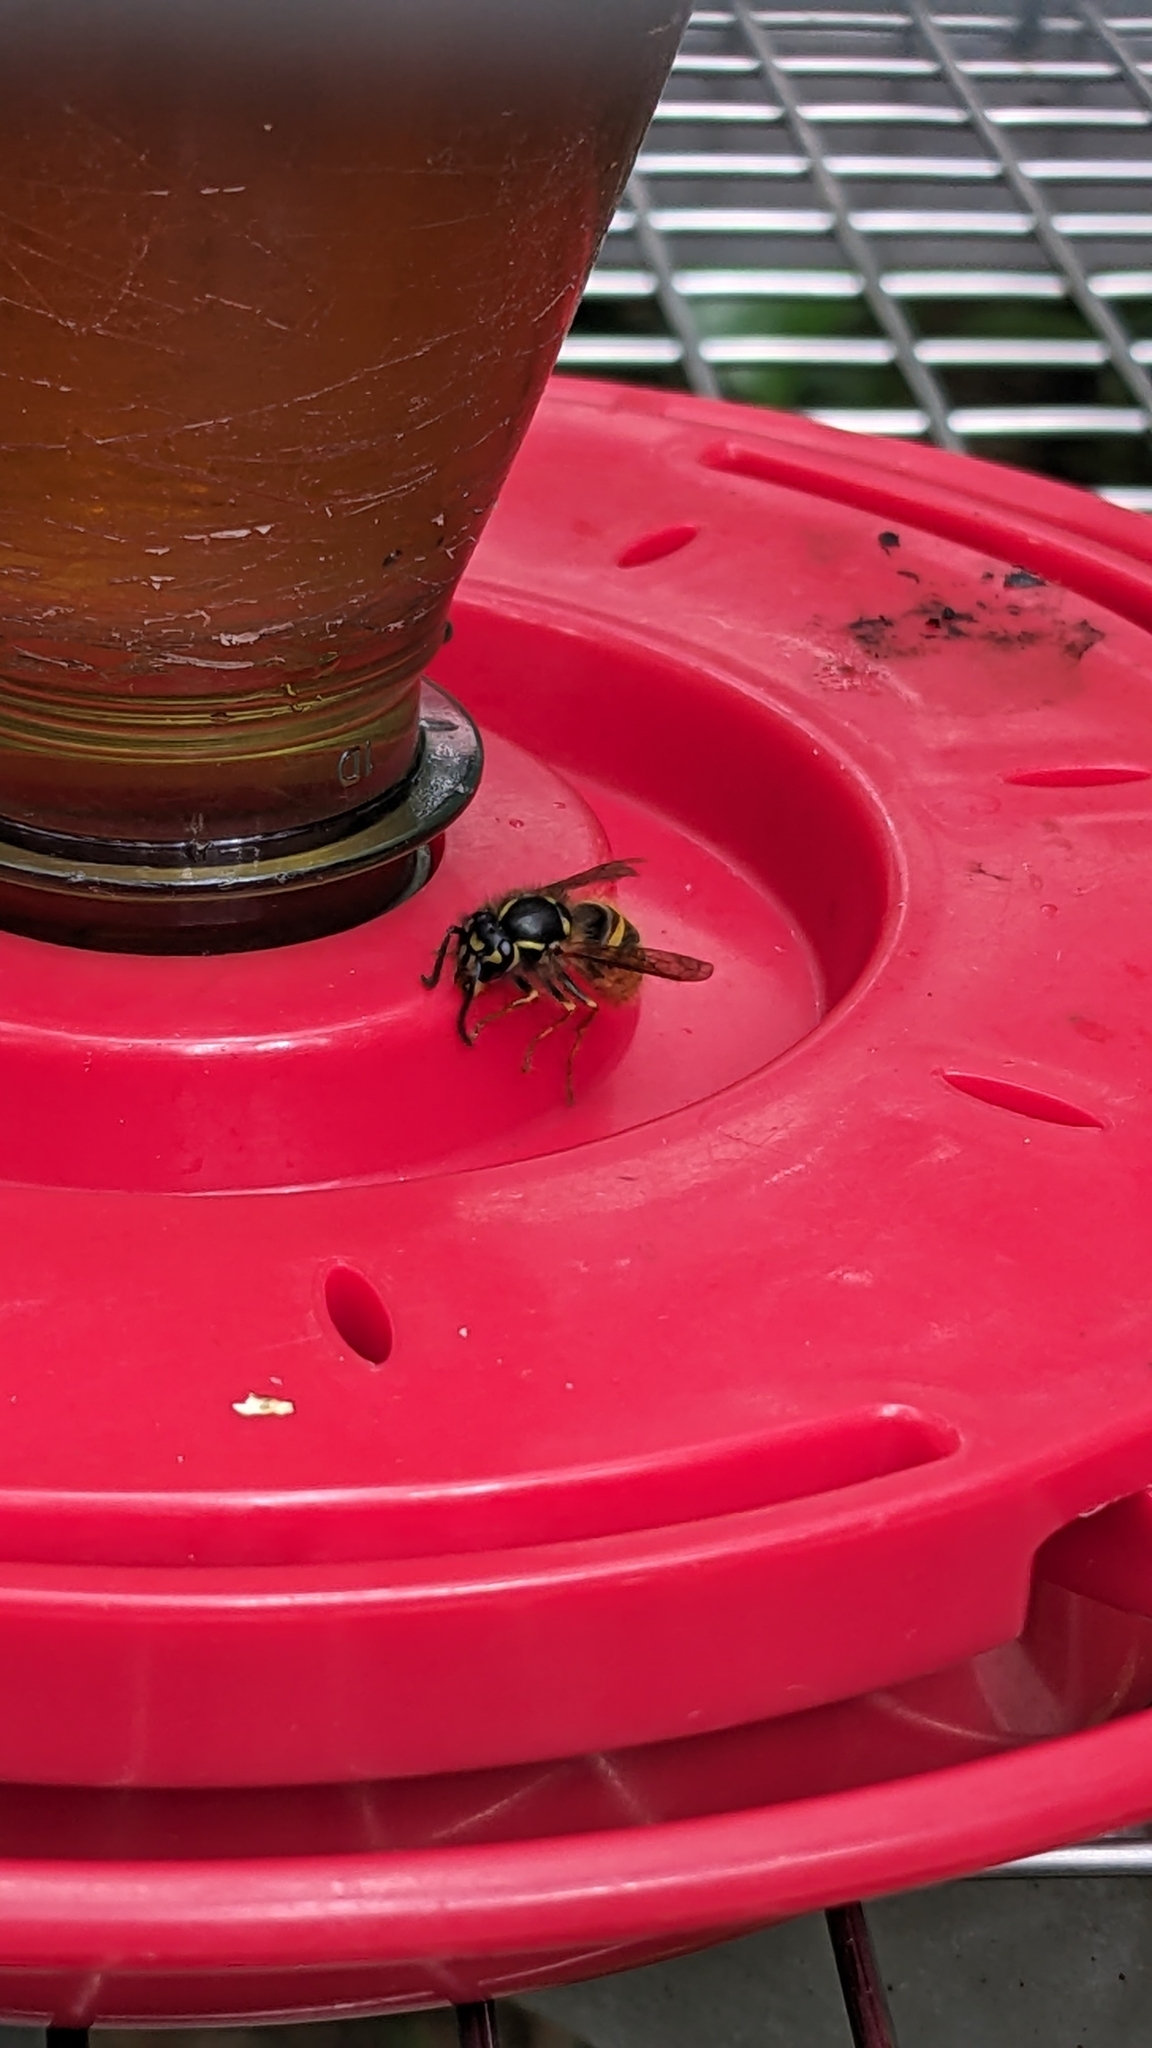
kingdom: Animalia
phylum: Arthropoda
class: Insecta
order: Hymenoptera
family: Vespidae
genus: Vespula
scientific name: Vespula vulgaris
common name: Common wasp
